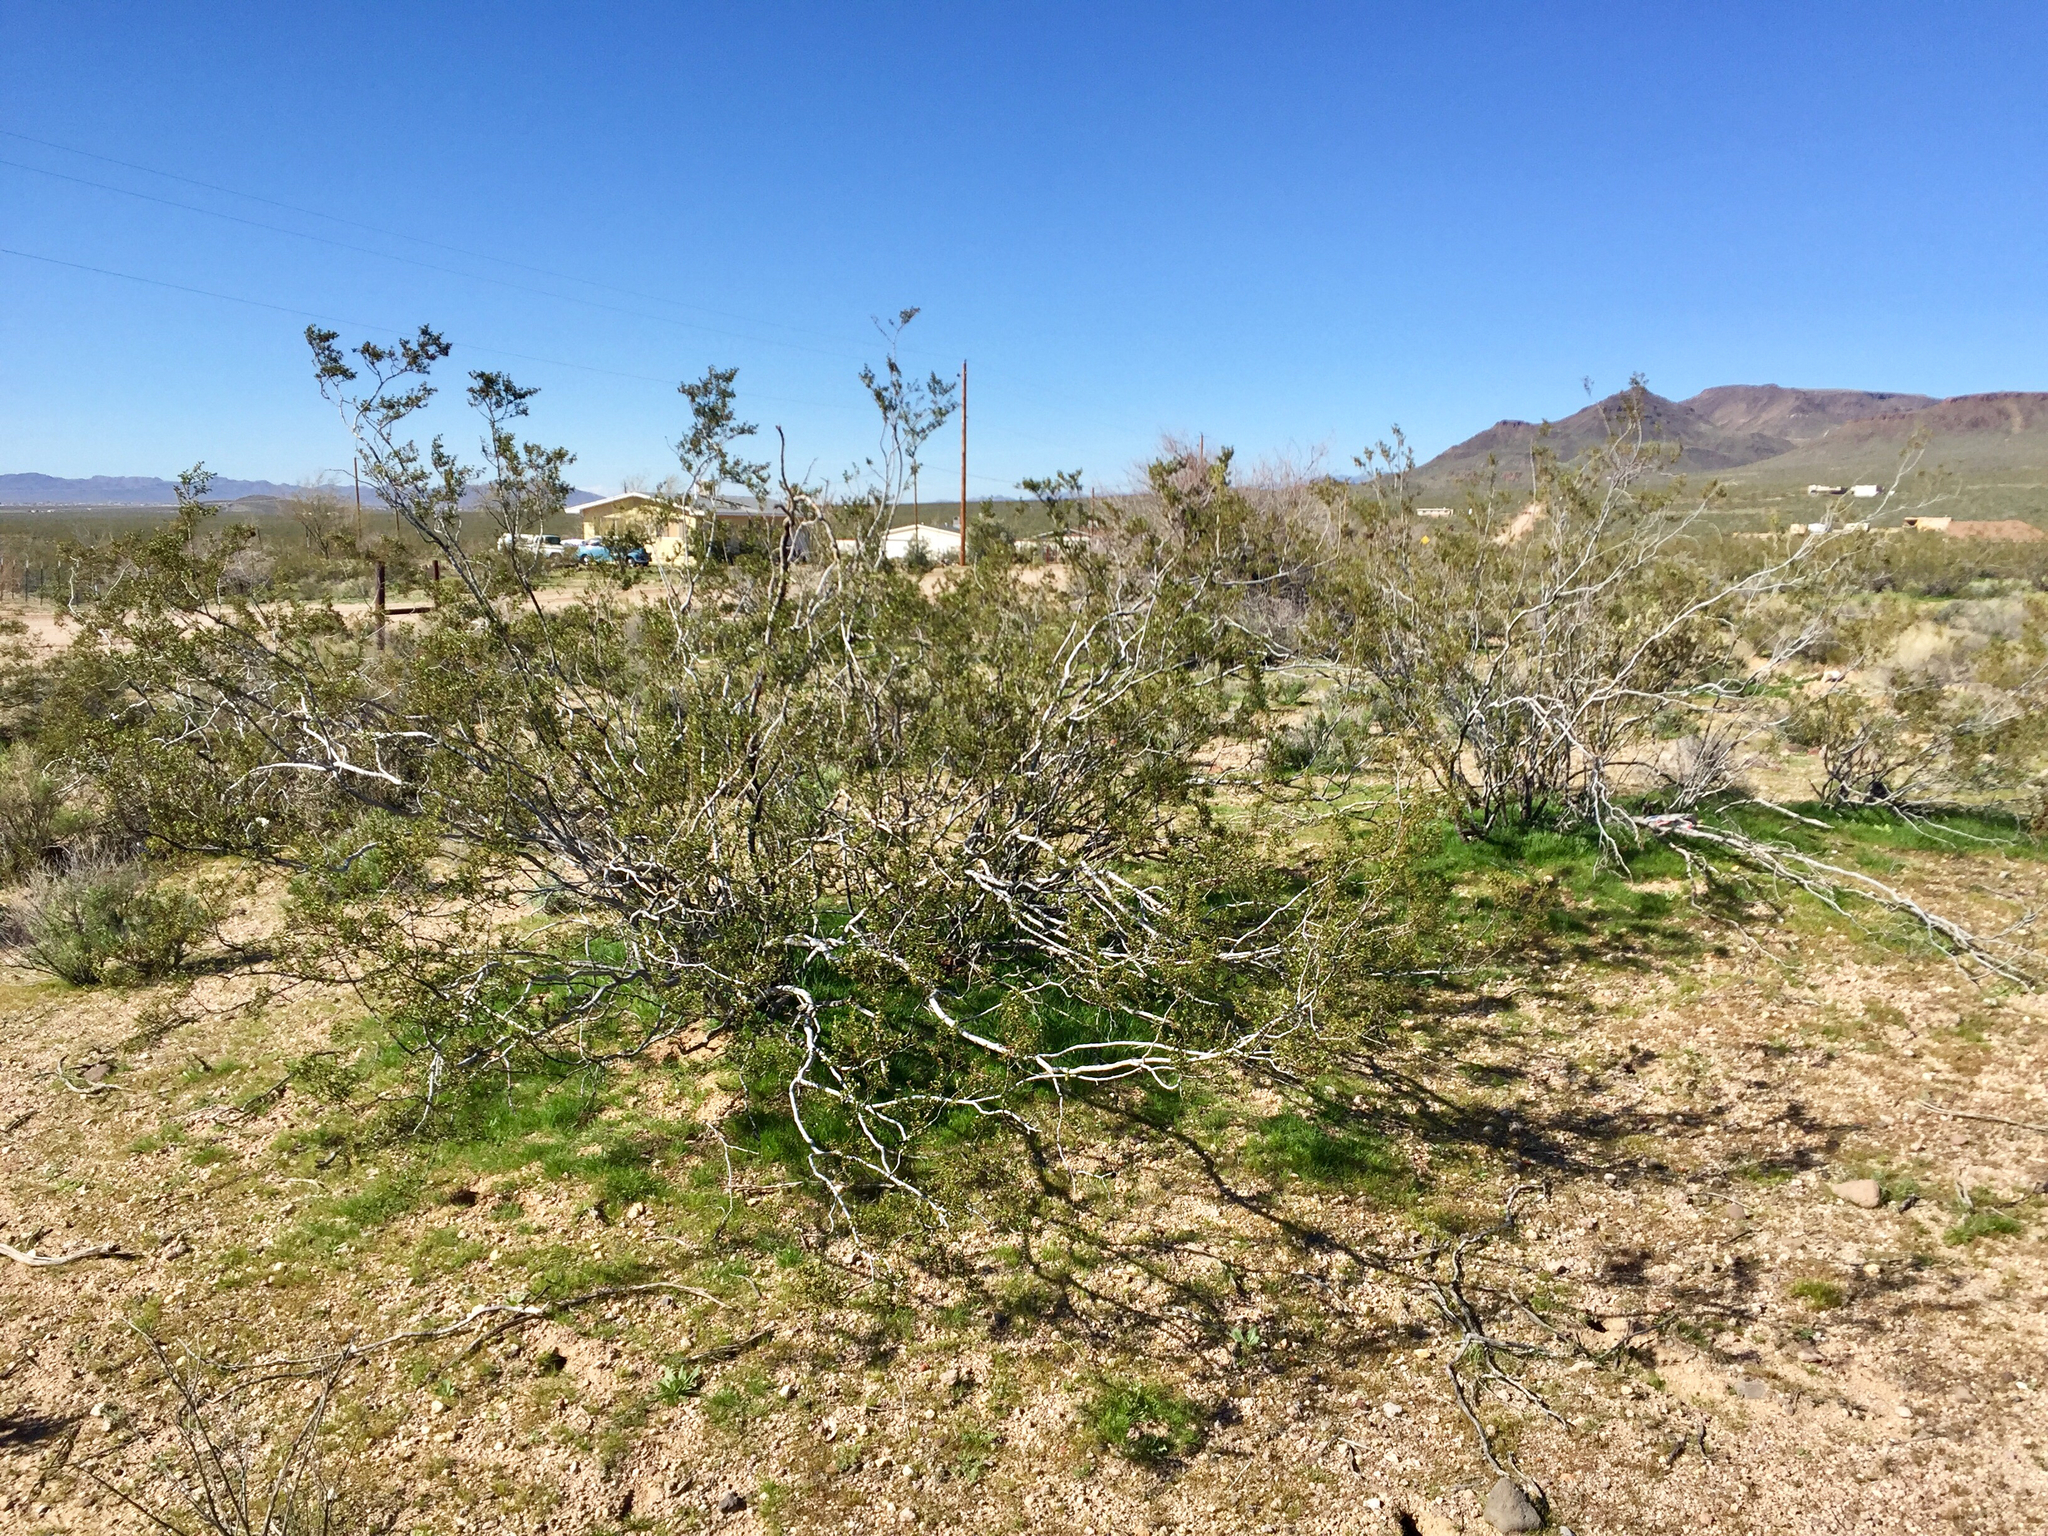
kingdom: Plantae
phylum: Tracheophyta
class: Magnoliopsida
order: Zygophyllales
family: Zygophyllaceae
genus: Larrea
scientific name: Larrea tridentata
